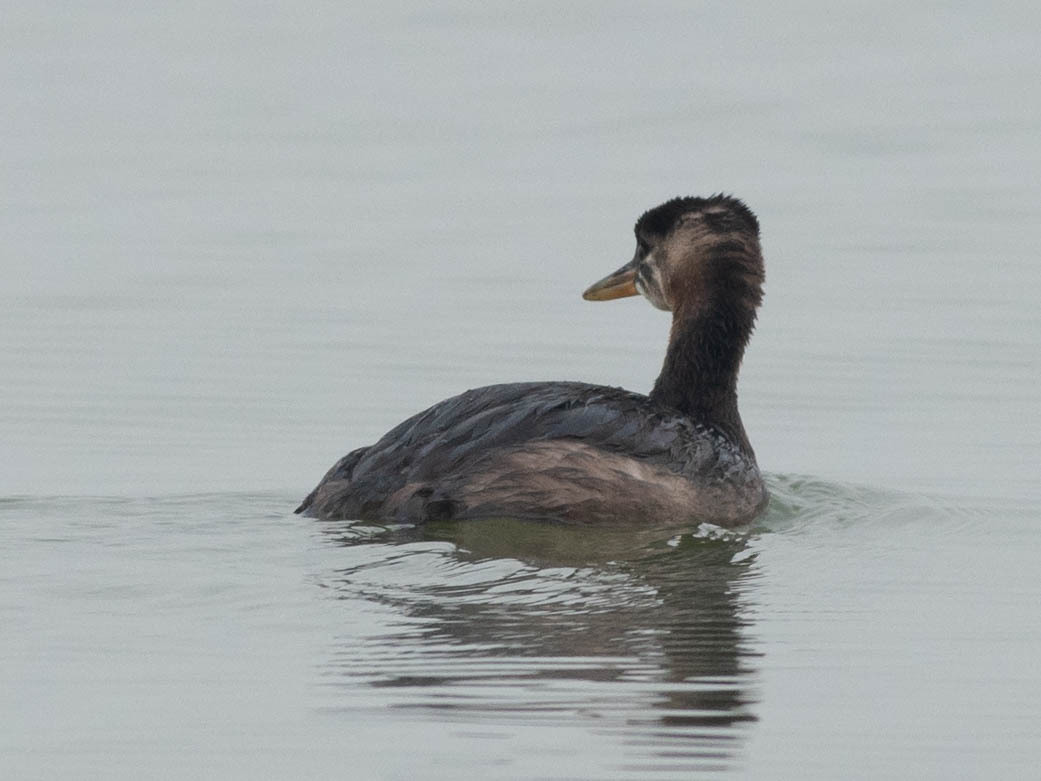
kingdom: Animalia
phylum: Chordata
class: Aves
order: Podicipediformes
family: Podicipedidae
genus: Podiceps
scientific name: Podiceps grisegena
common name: Red-necked grebe
